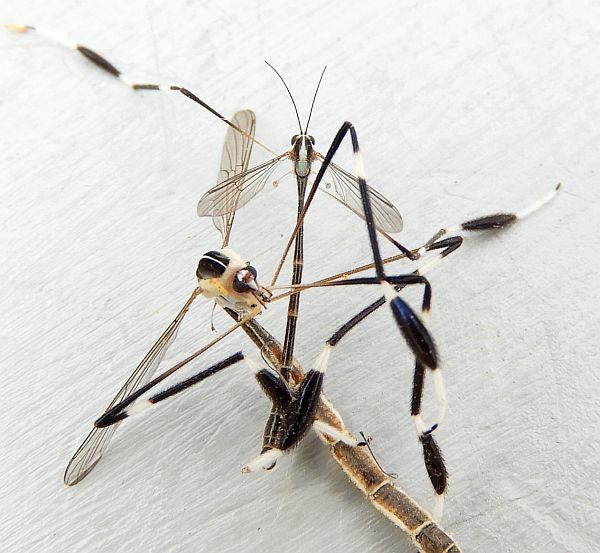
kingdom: Animalia
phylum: Arthropoda
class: Insecta
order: Diptera
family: Ptychopteridae
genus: Bittacomorpha
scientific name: Bittacomorpha clavipes
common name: Eastern phantom crane fly
